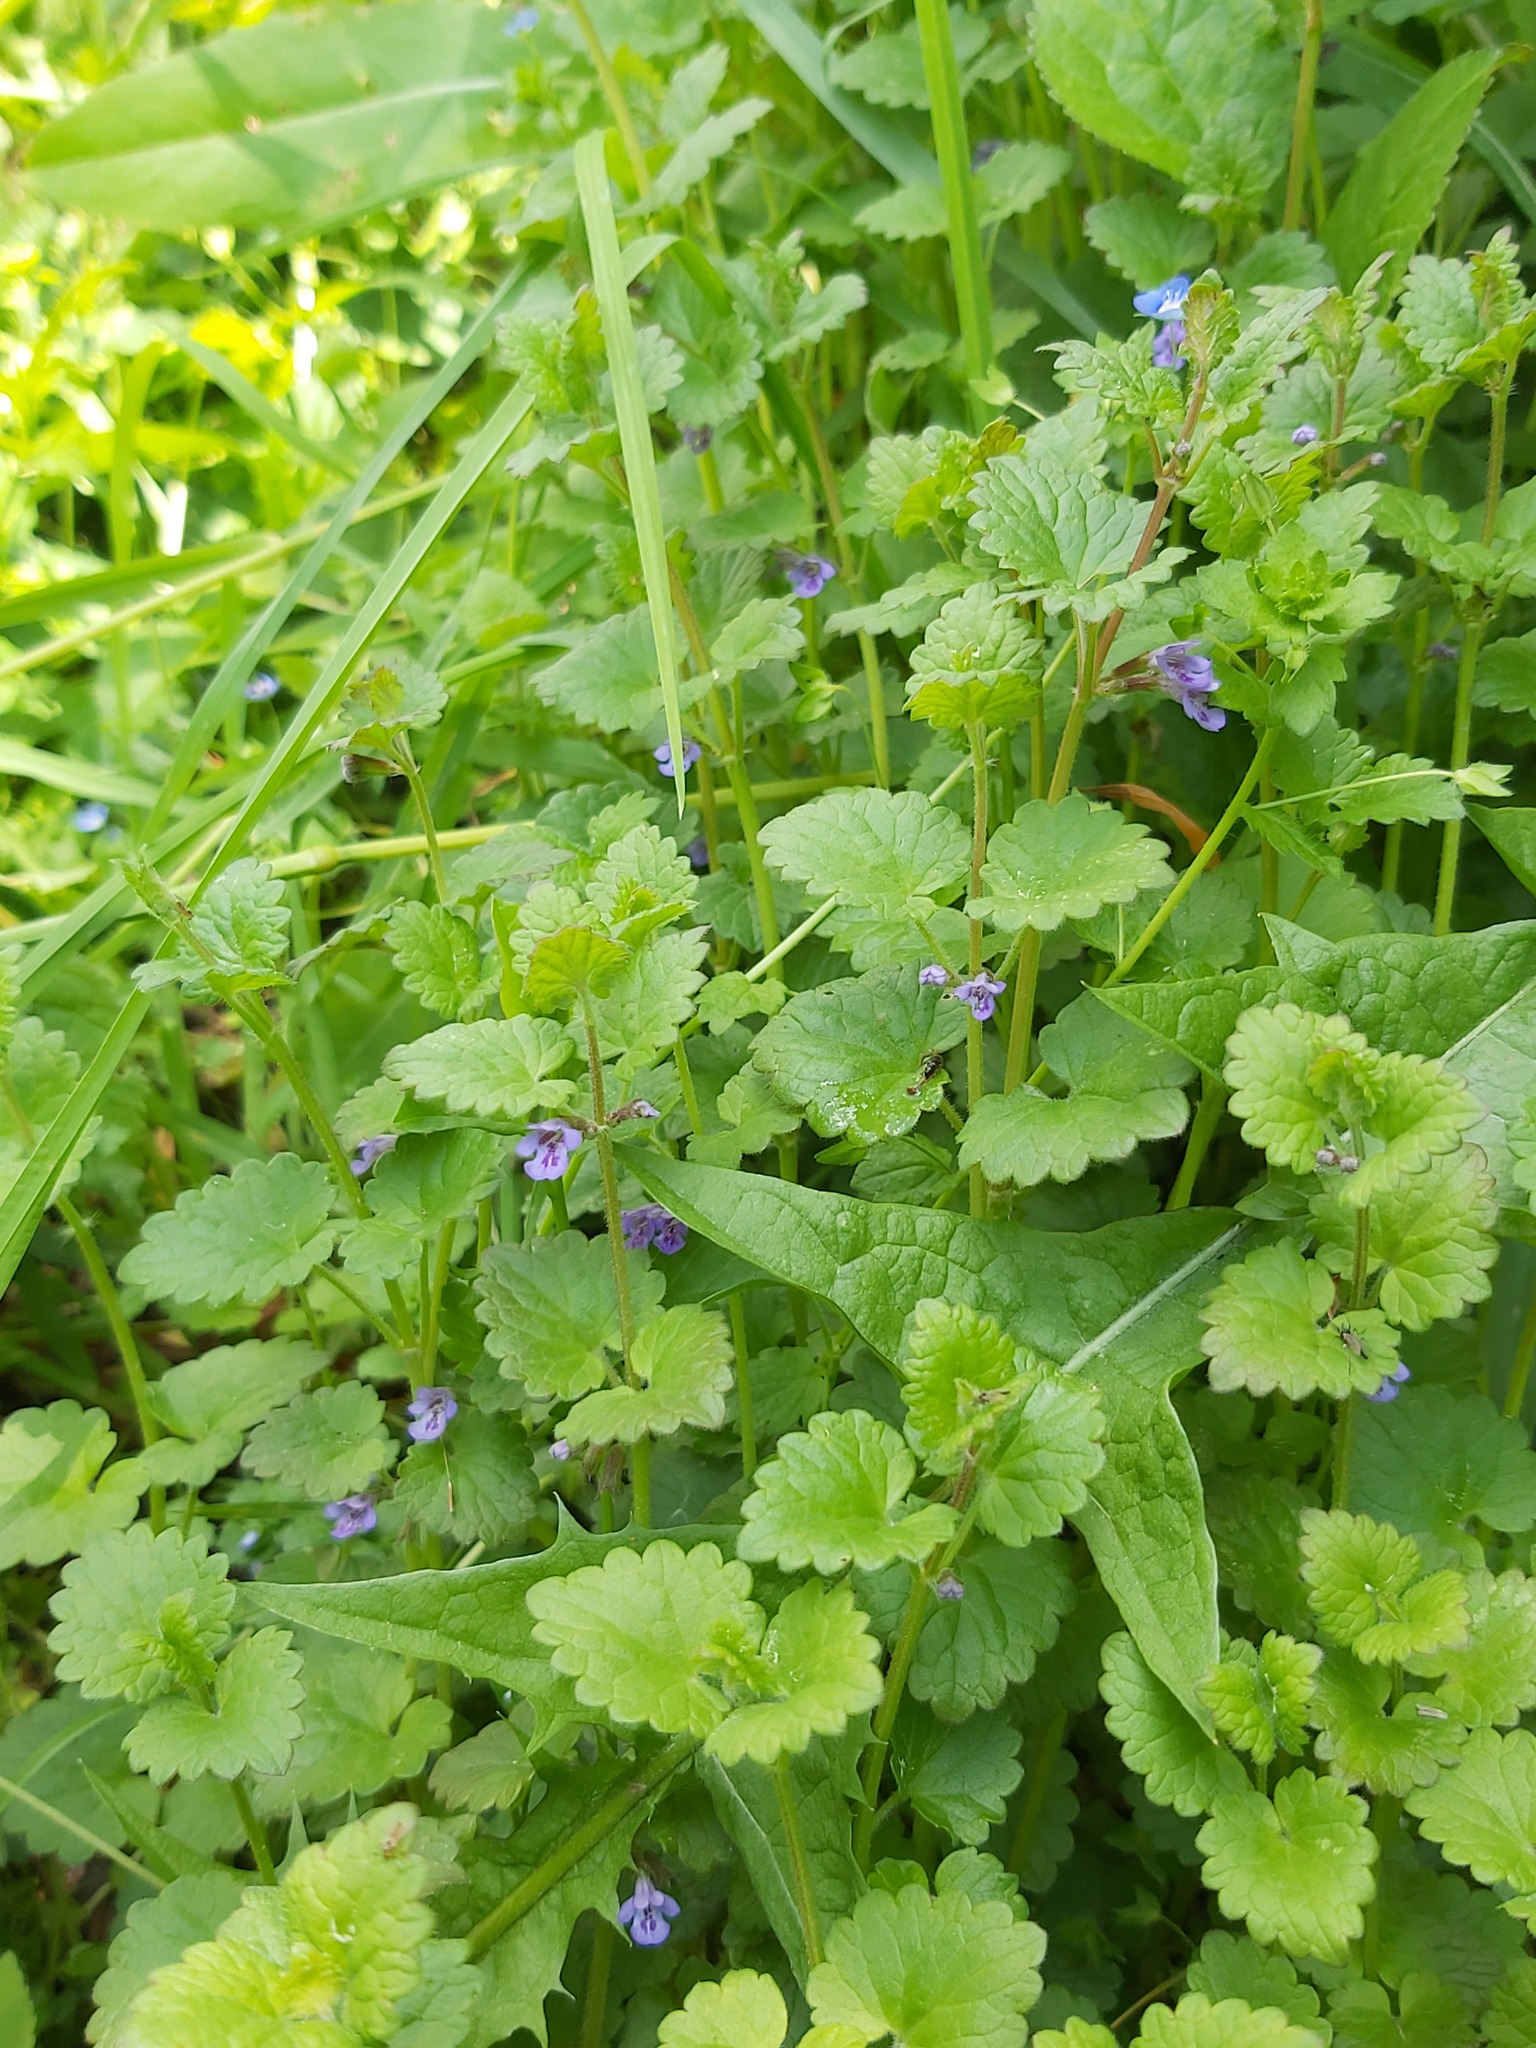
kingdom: Plantae
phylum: Tracheophyta
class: Magnoliopsida
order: Lamiales
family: Lamiaceae
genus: Glechoma
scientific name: Glechoma hederacea
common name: Ground ivy
